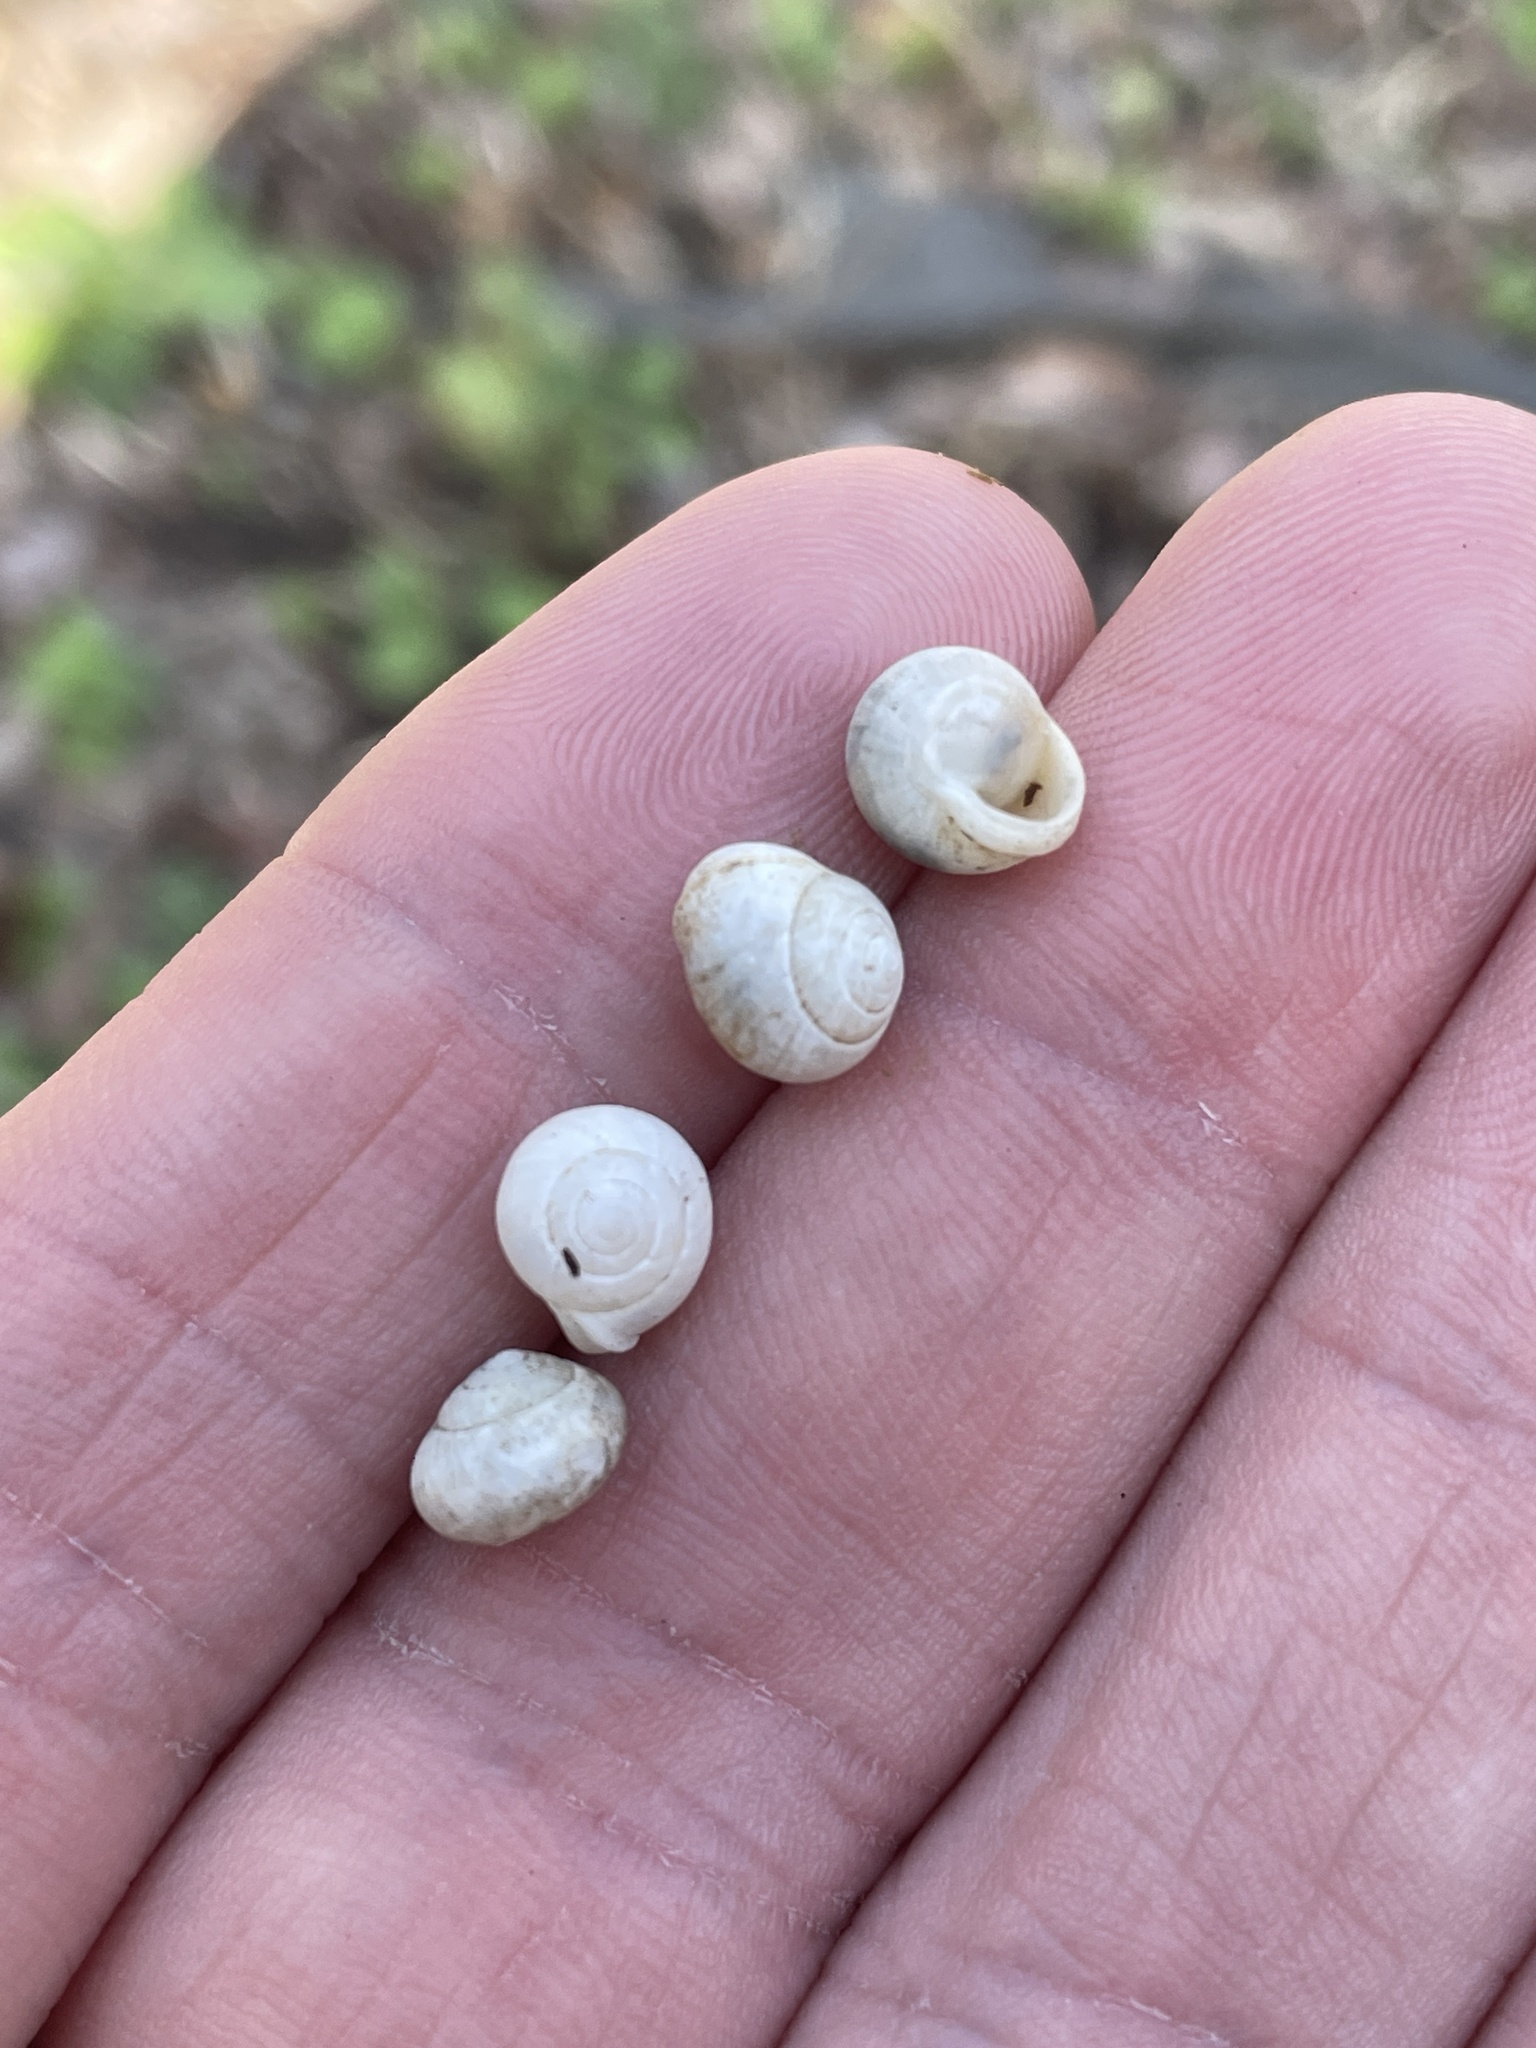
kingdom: Animalia
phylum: Mollusca
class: Gastropoda
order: Cycloneritida
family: Helicinidae
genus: Helicina
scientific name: Helicina orbiculata
